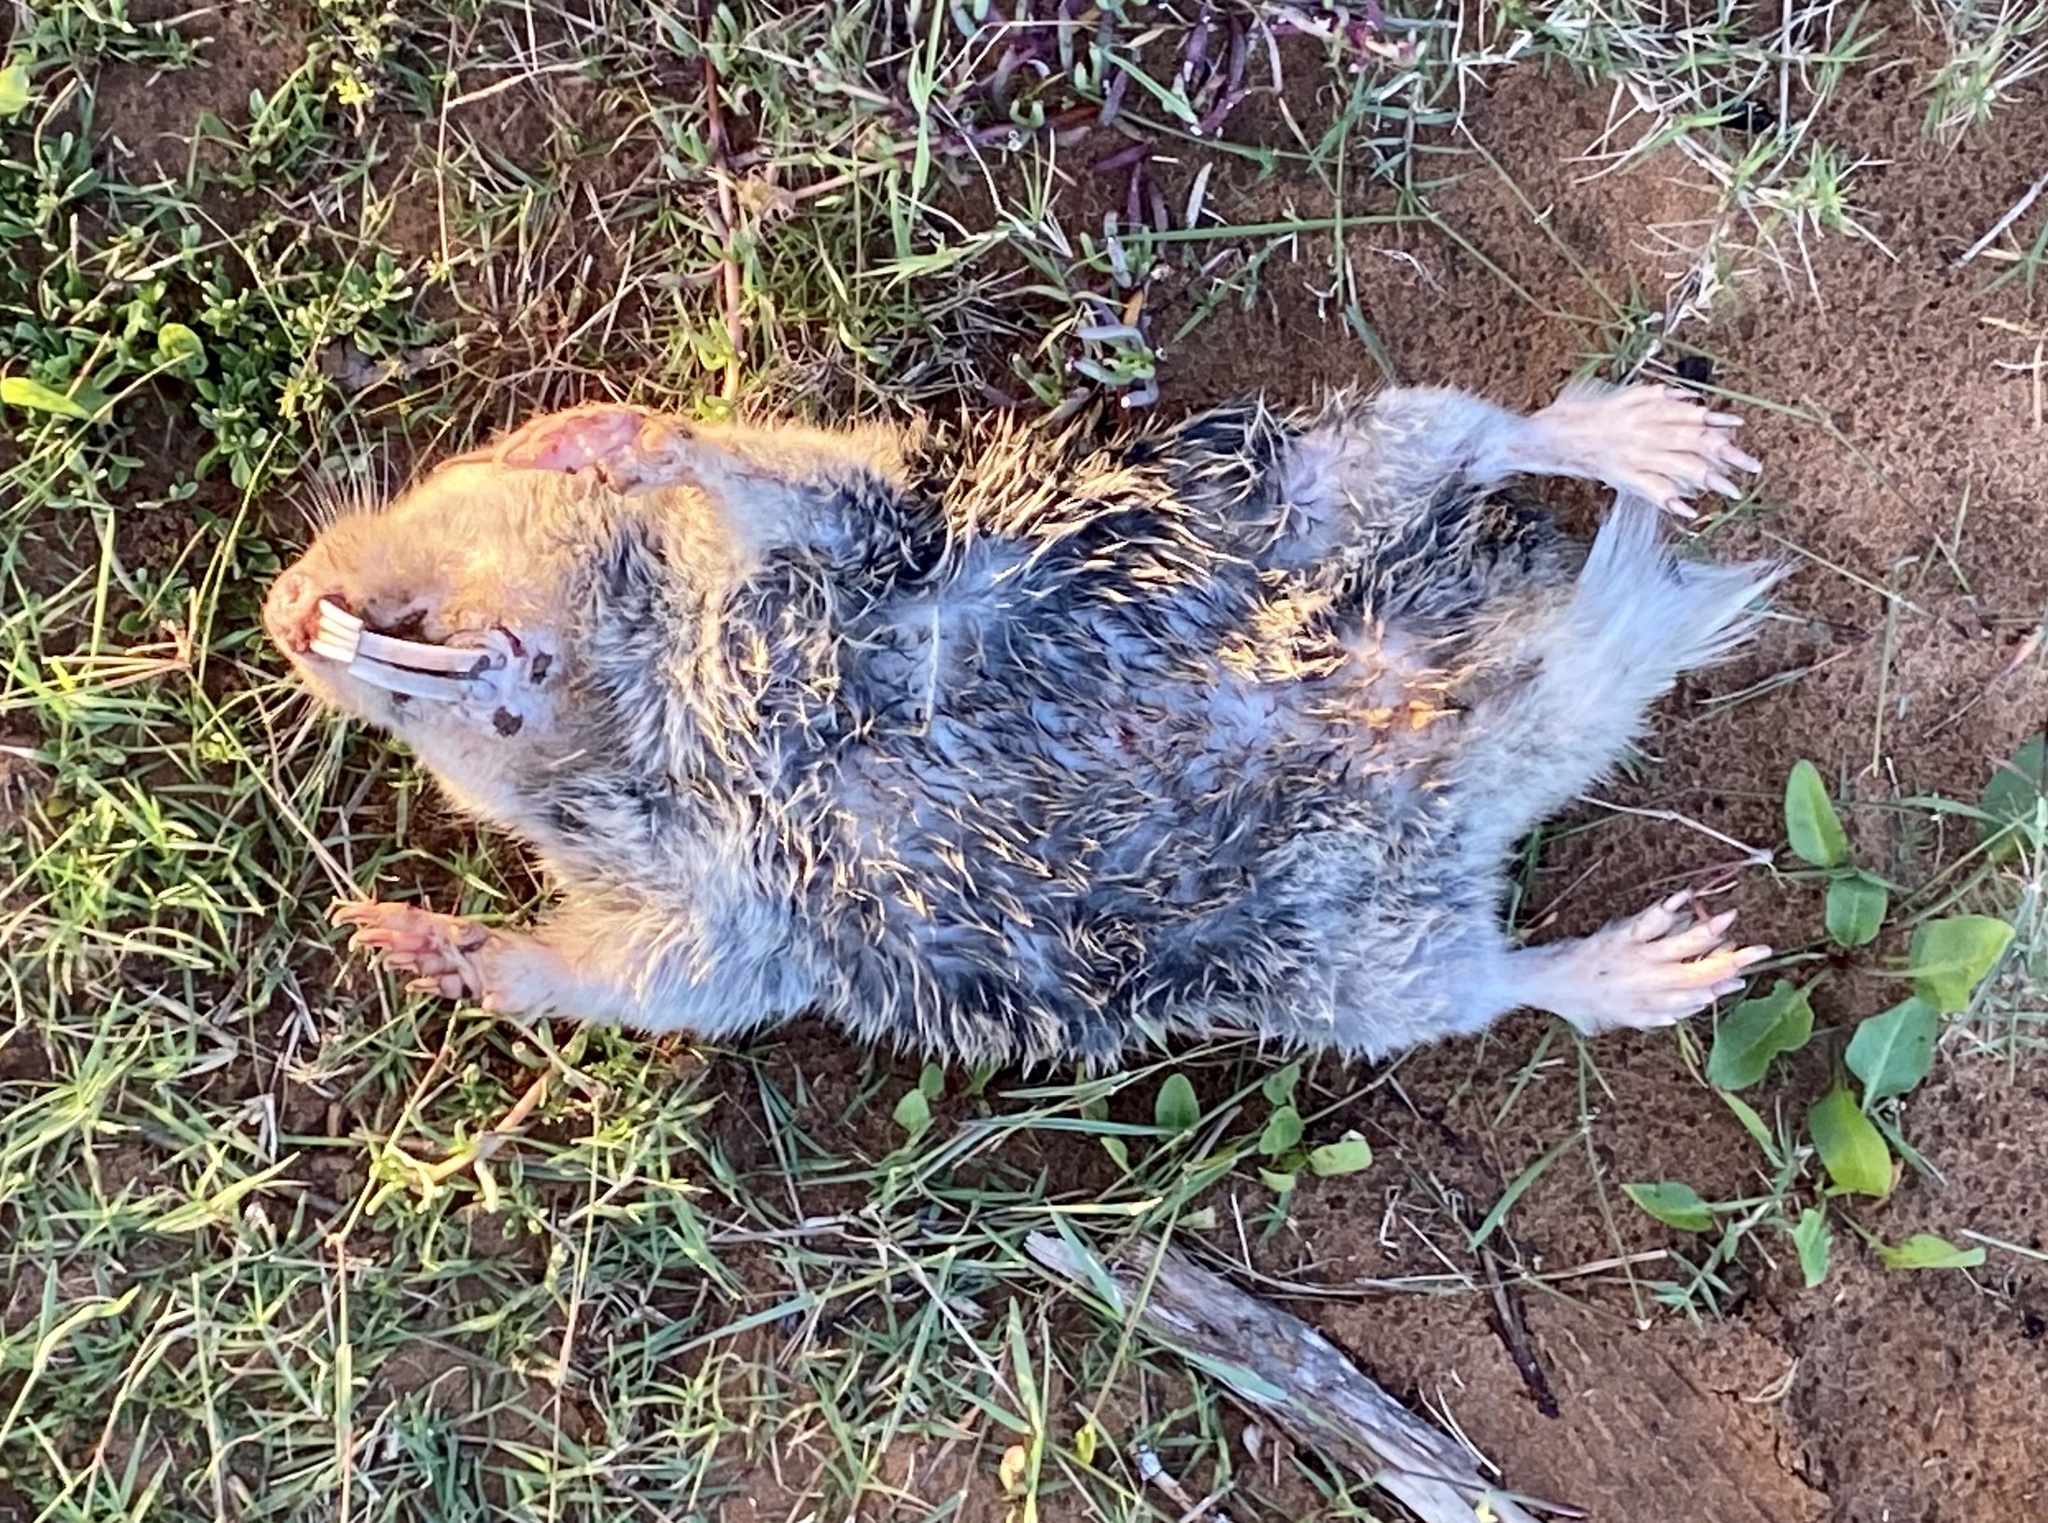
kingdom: Animalia
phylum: Chordata
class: Mammalia
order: Rodentia
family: Bathyergidae
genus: Bathyergus
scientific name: Bathyergus suillus
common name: Cape dune mole rat
